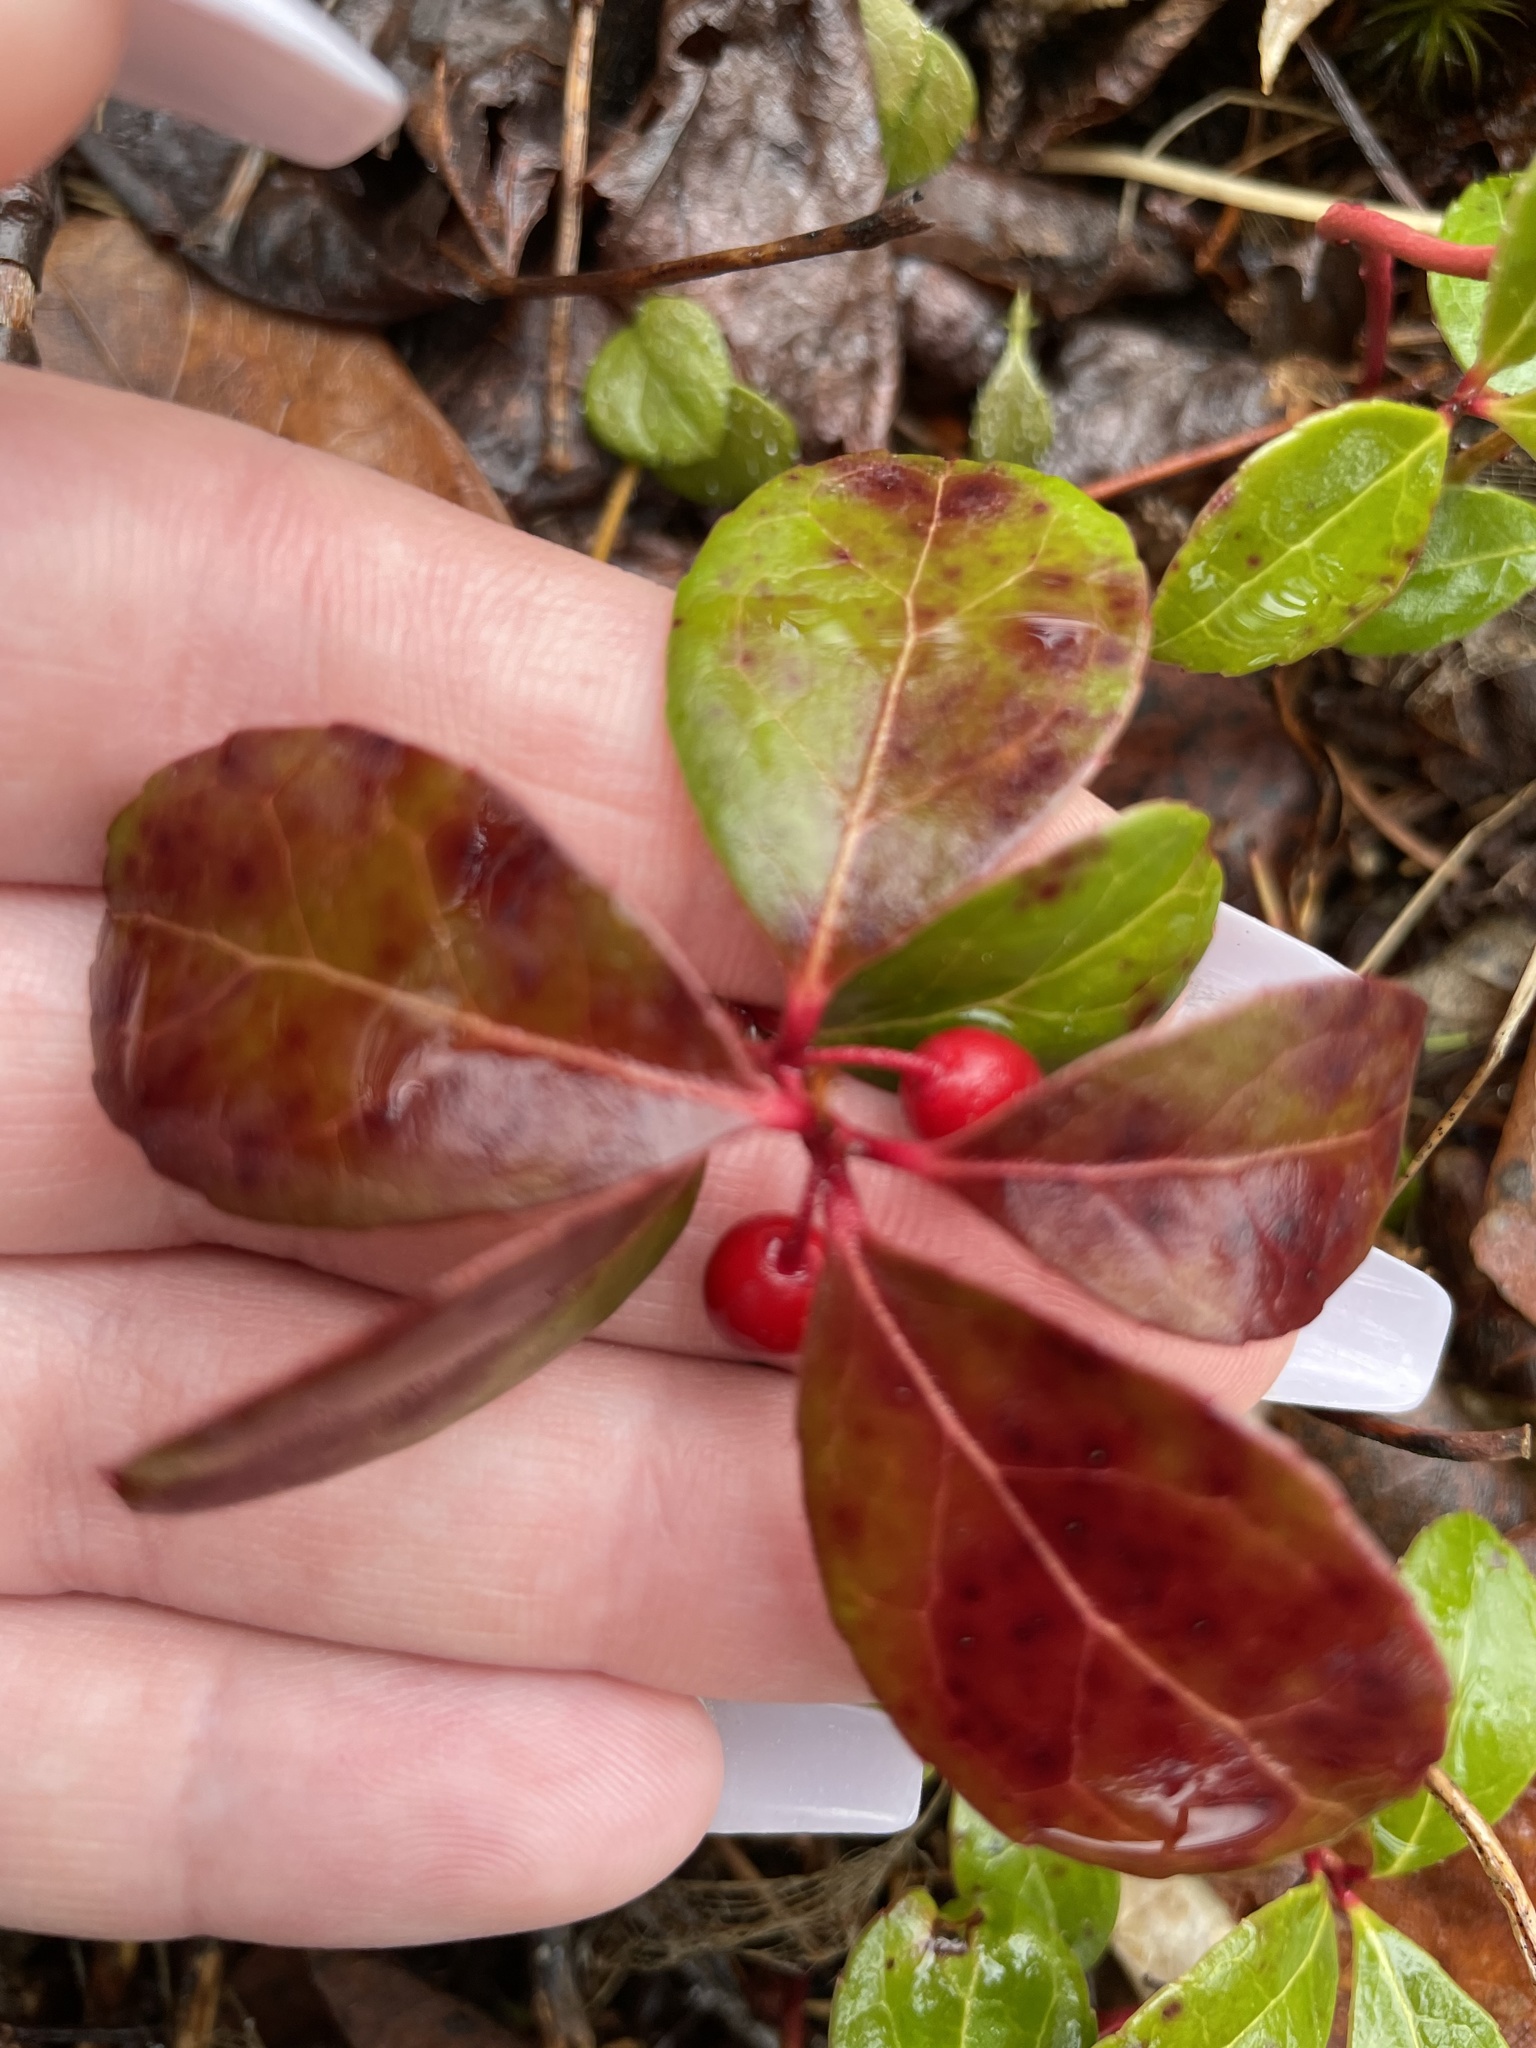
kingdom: Plantae
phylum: Tracheophyta
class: Magnoliopsida
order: Ericales
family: Ericaceae
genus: Gaultheria
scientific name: Gaultheria procumbens
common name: Checkerberry
